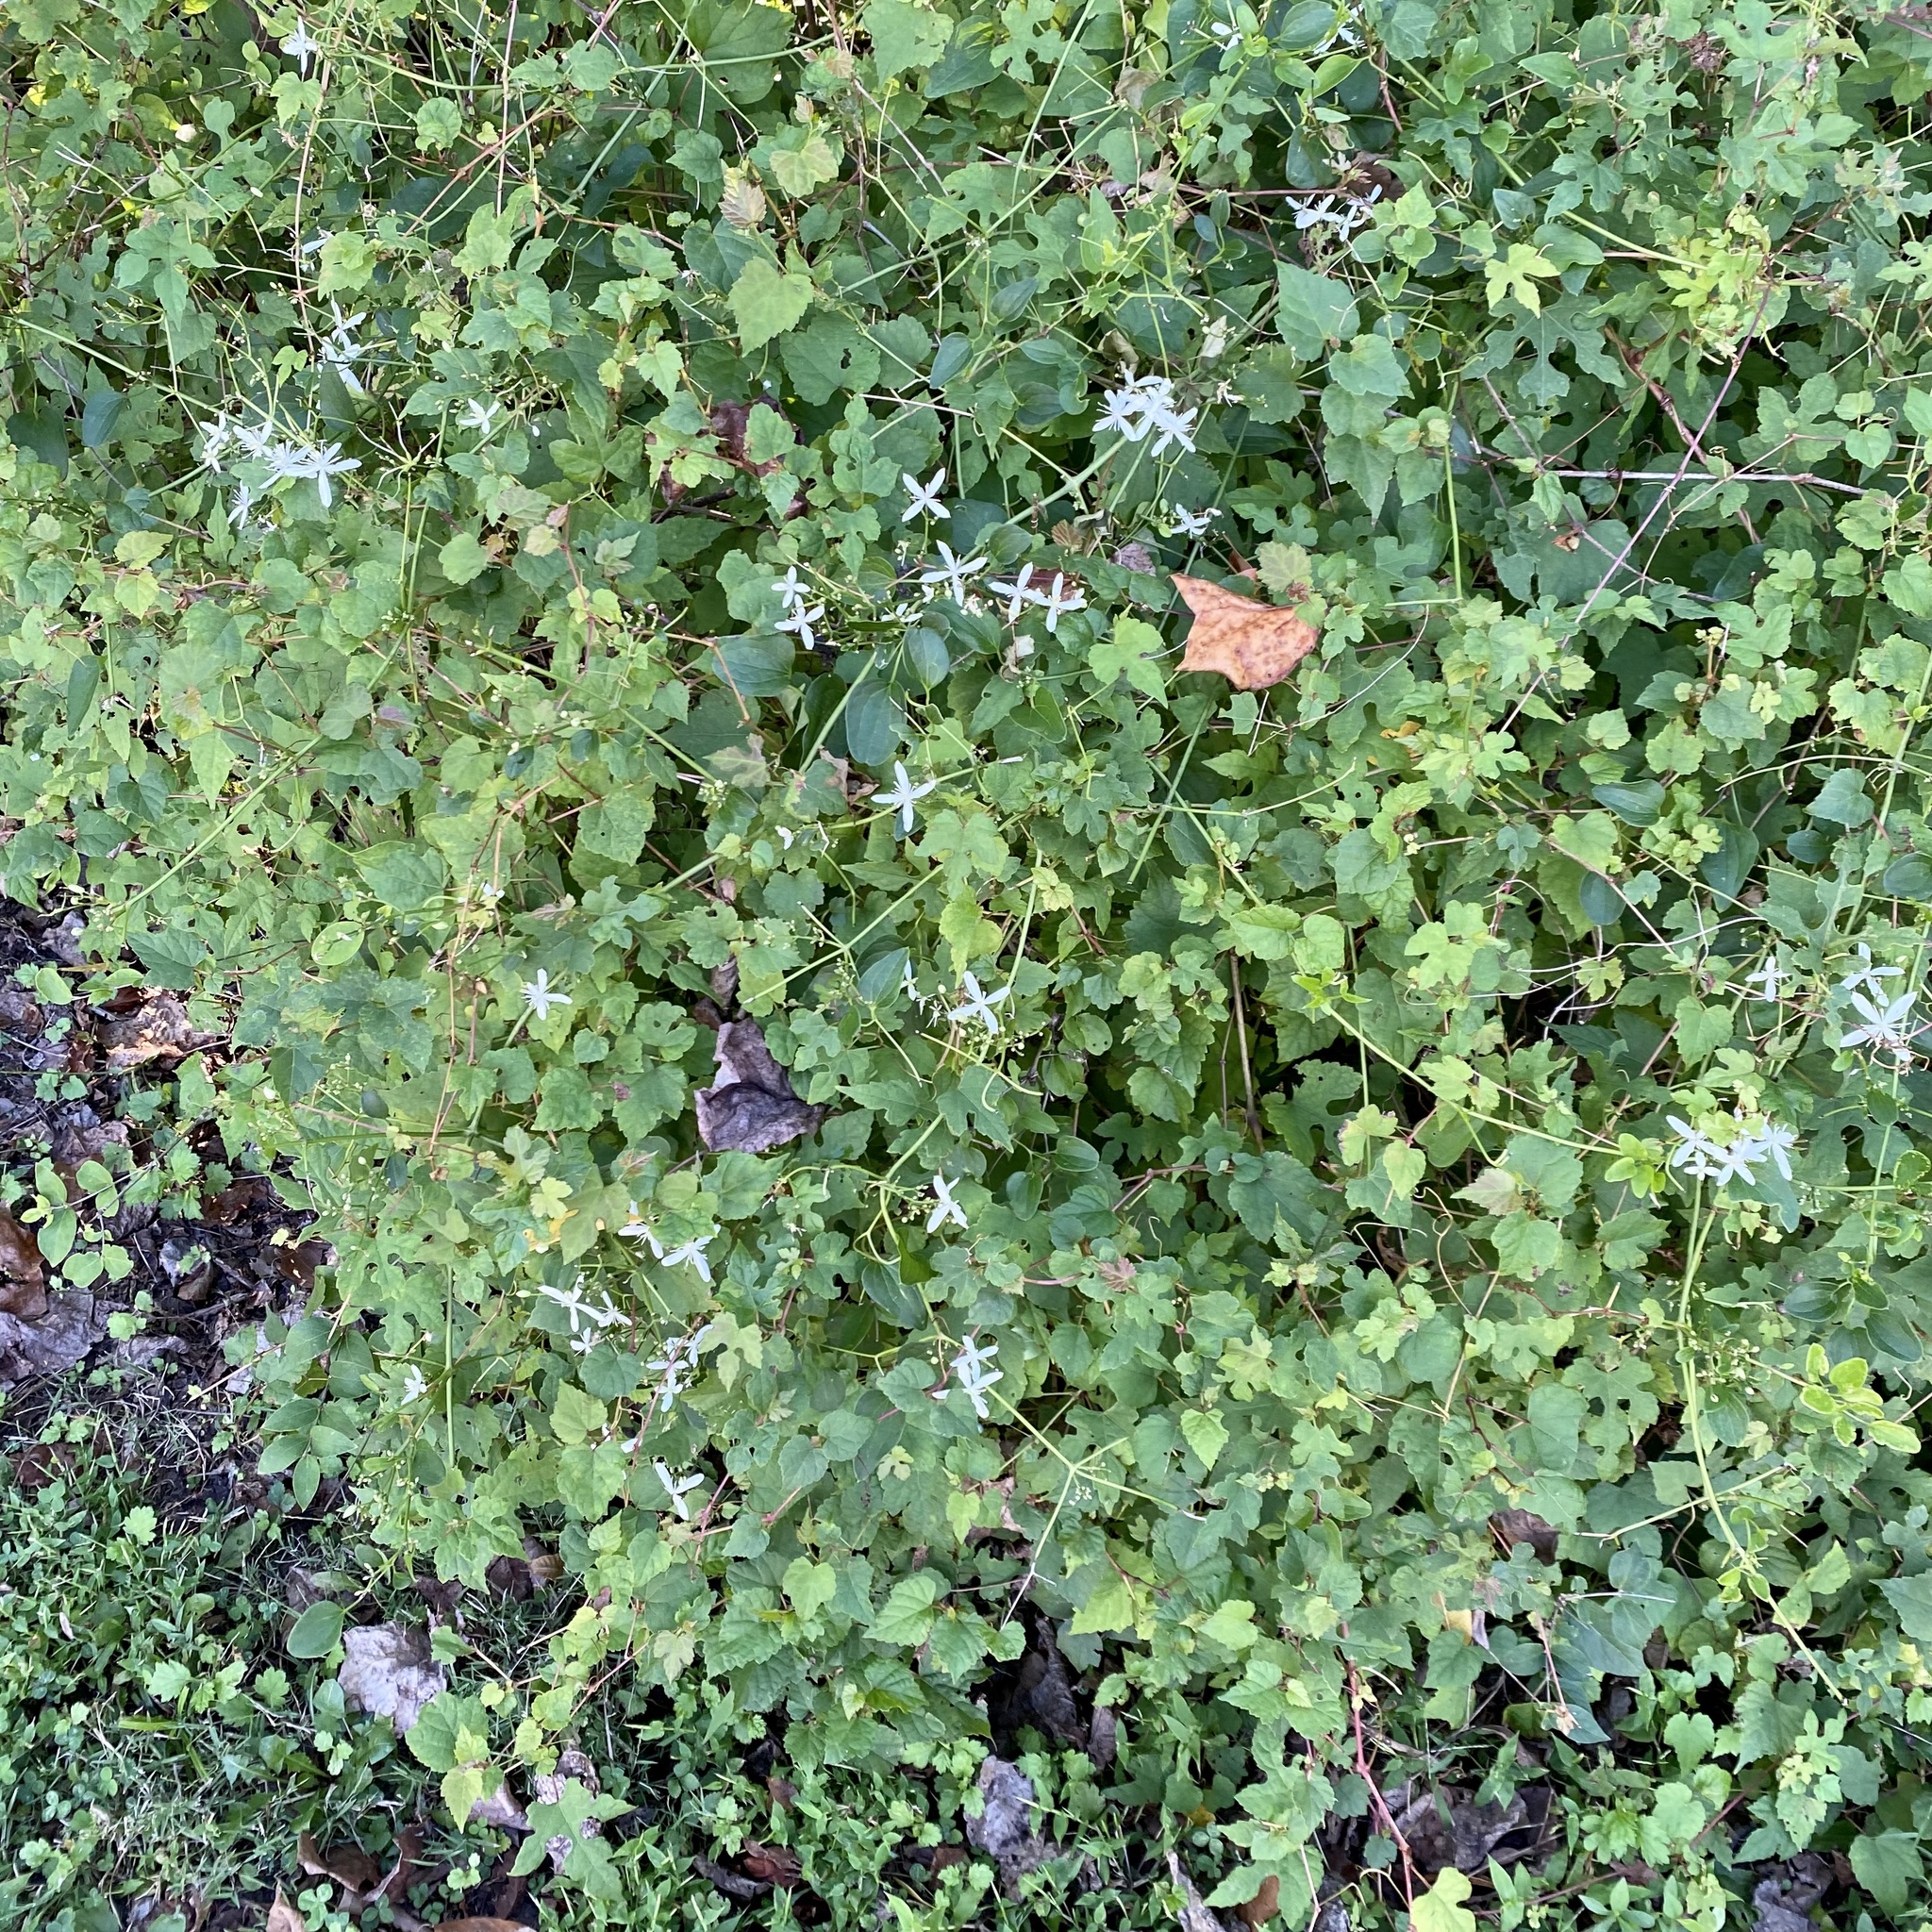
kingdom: Plantae
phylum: Tracheophyta
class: Magnoliopsida
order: Ranunculales
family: Ranunculaceae
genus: Clematis
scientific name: Clematis terniflora
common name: Sweet autumn clematis
